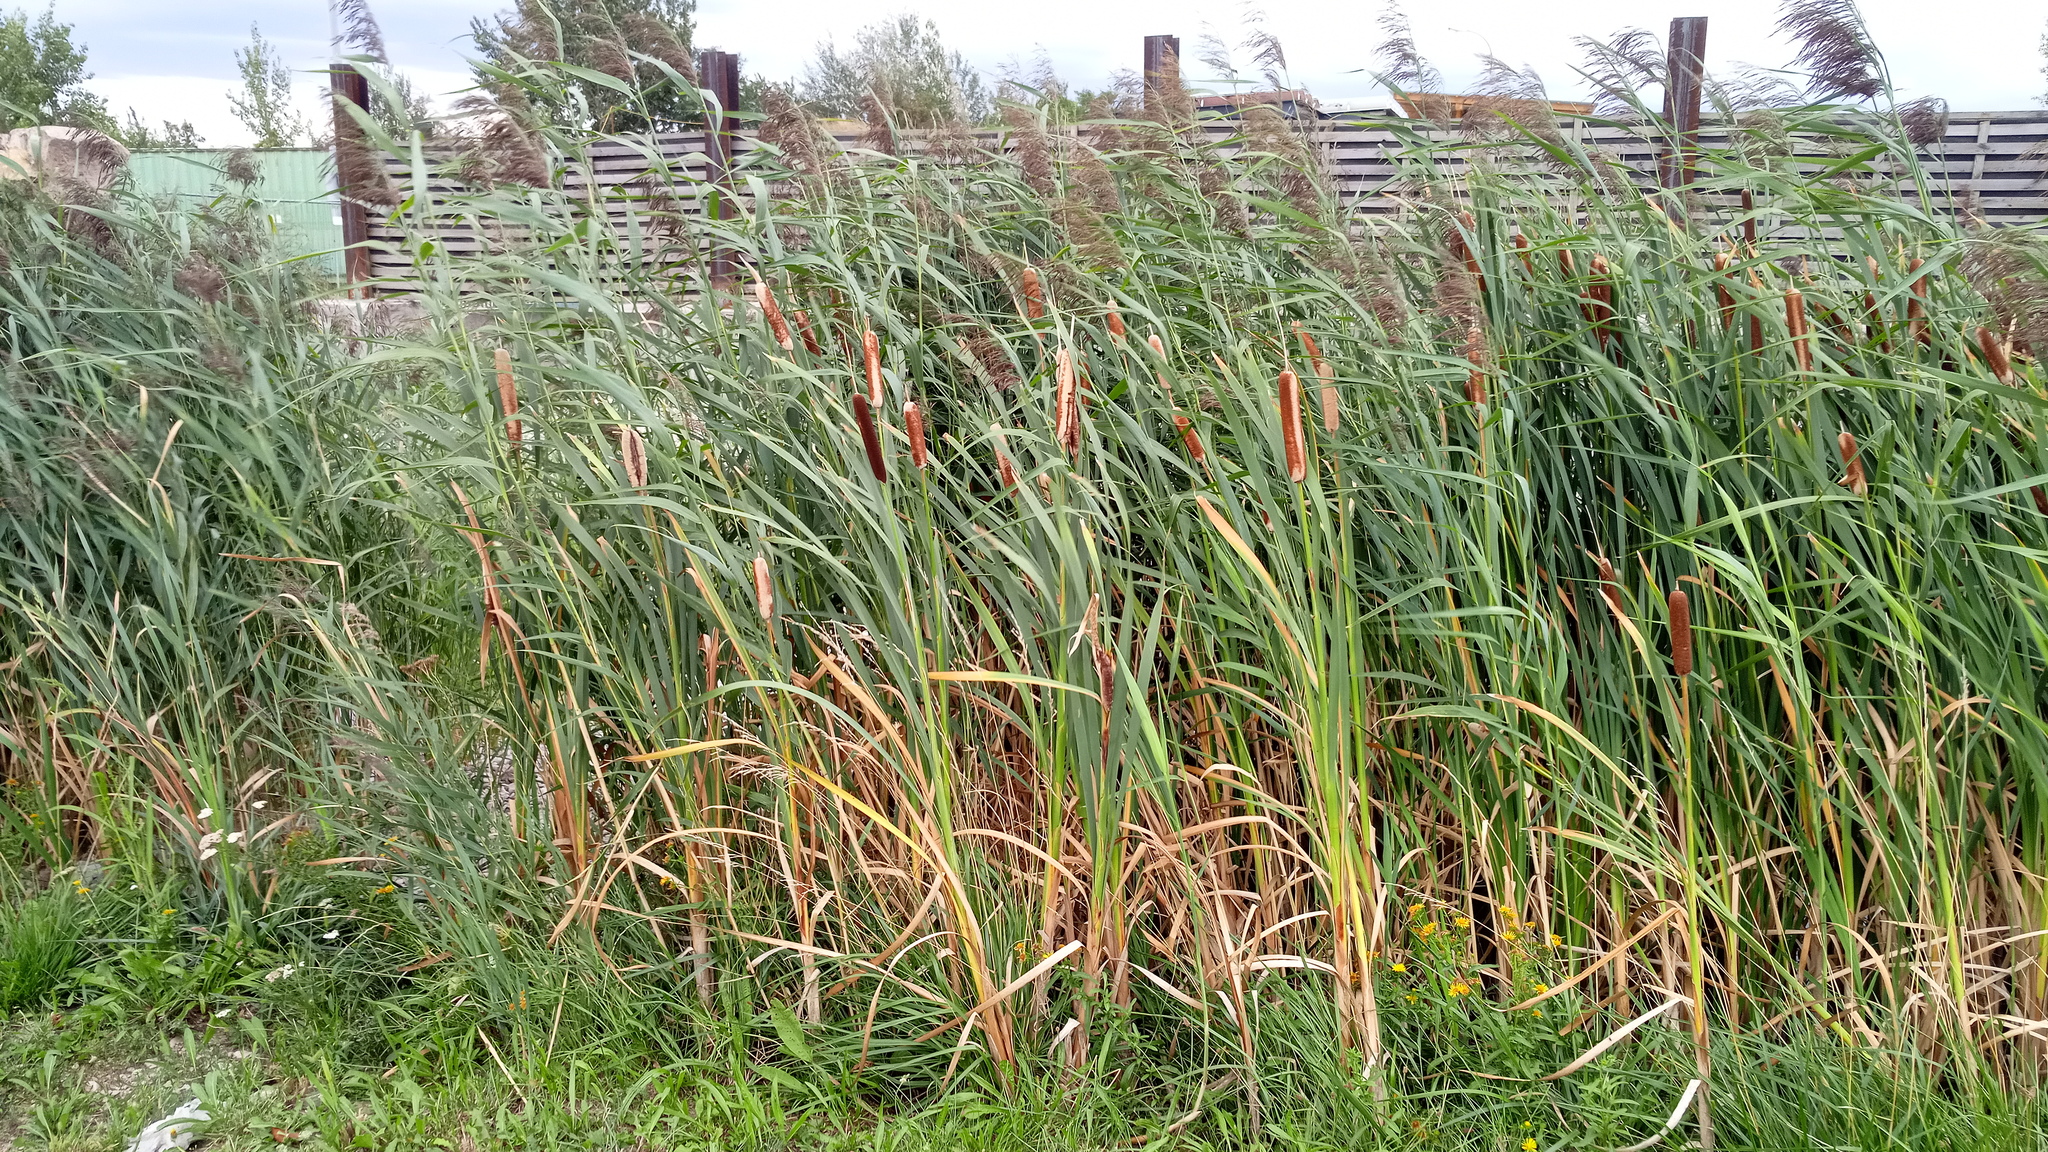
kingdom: Plantae
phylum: Tracheophyta
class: Liliopsida
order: Poales
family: Typhaceae
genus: Typha
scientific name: Typha latifolia
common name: Broadleaf cattail
